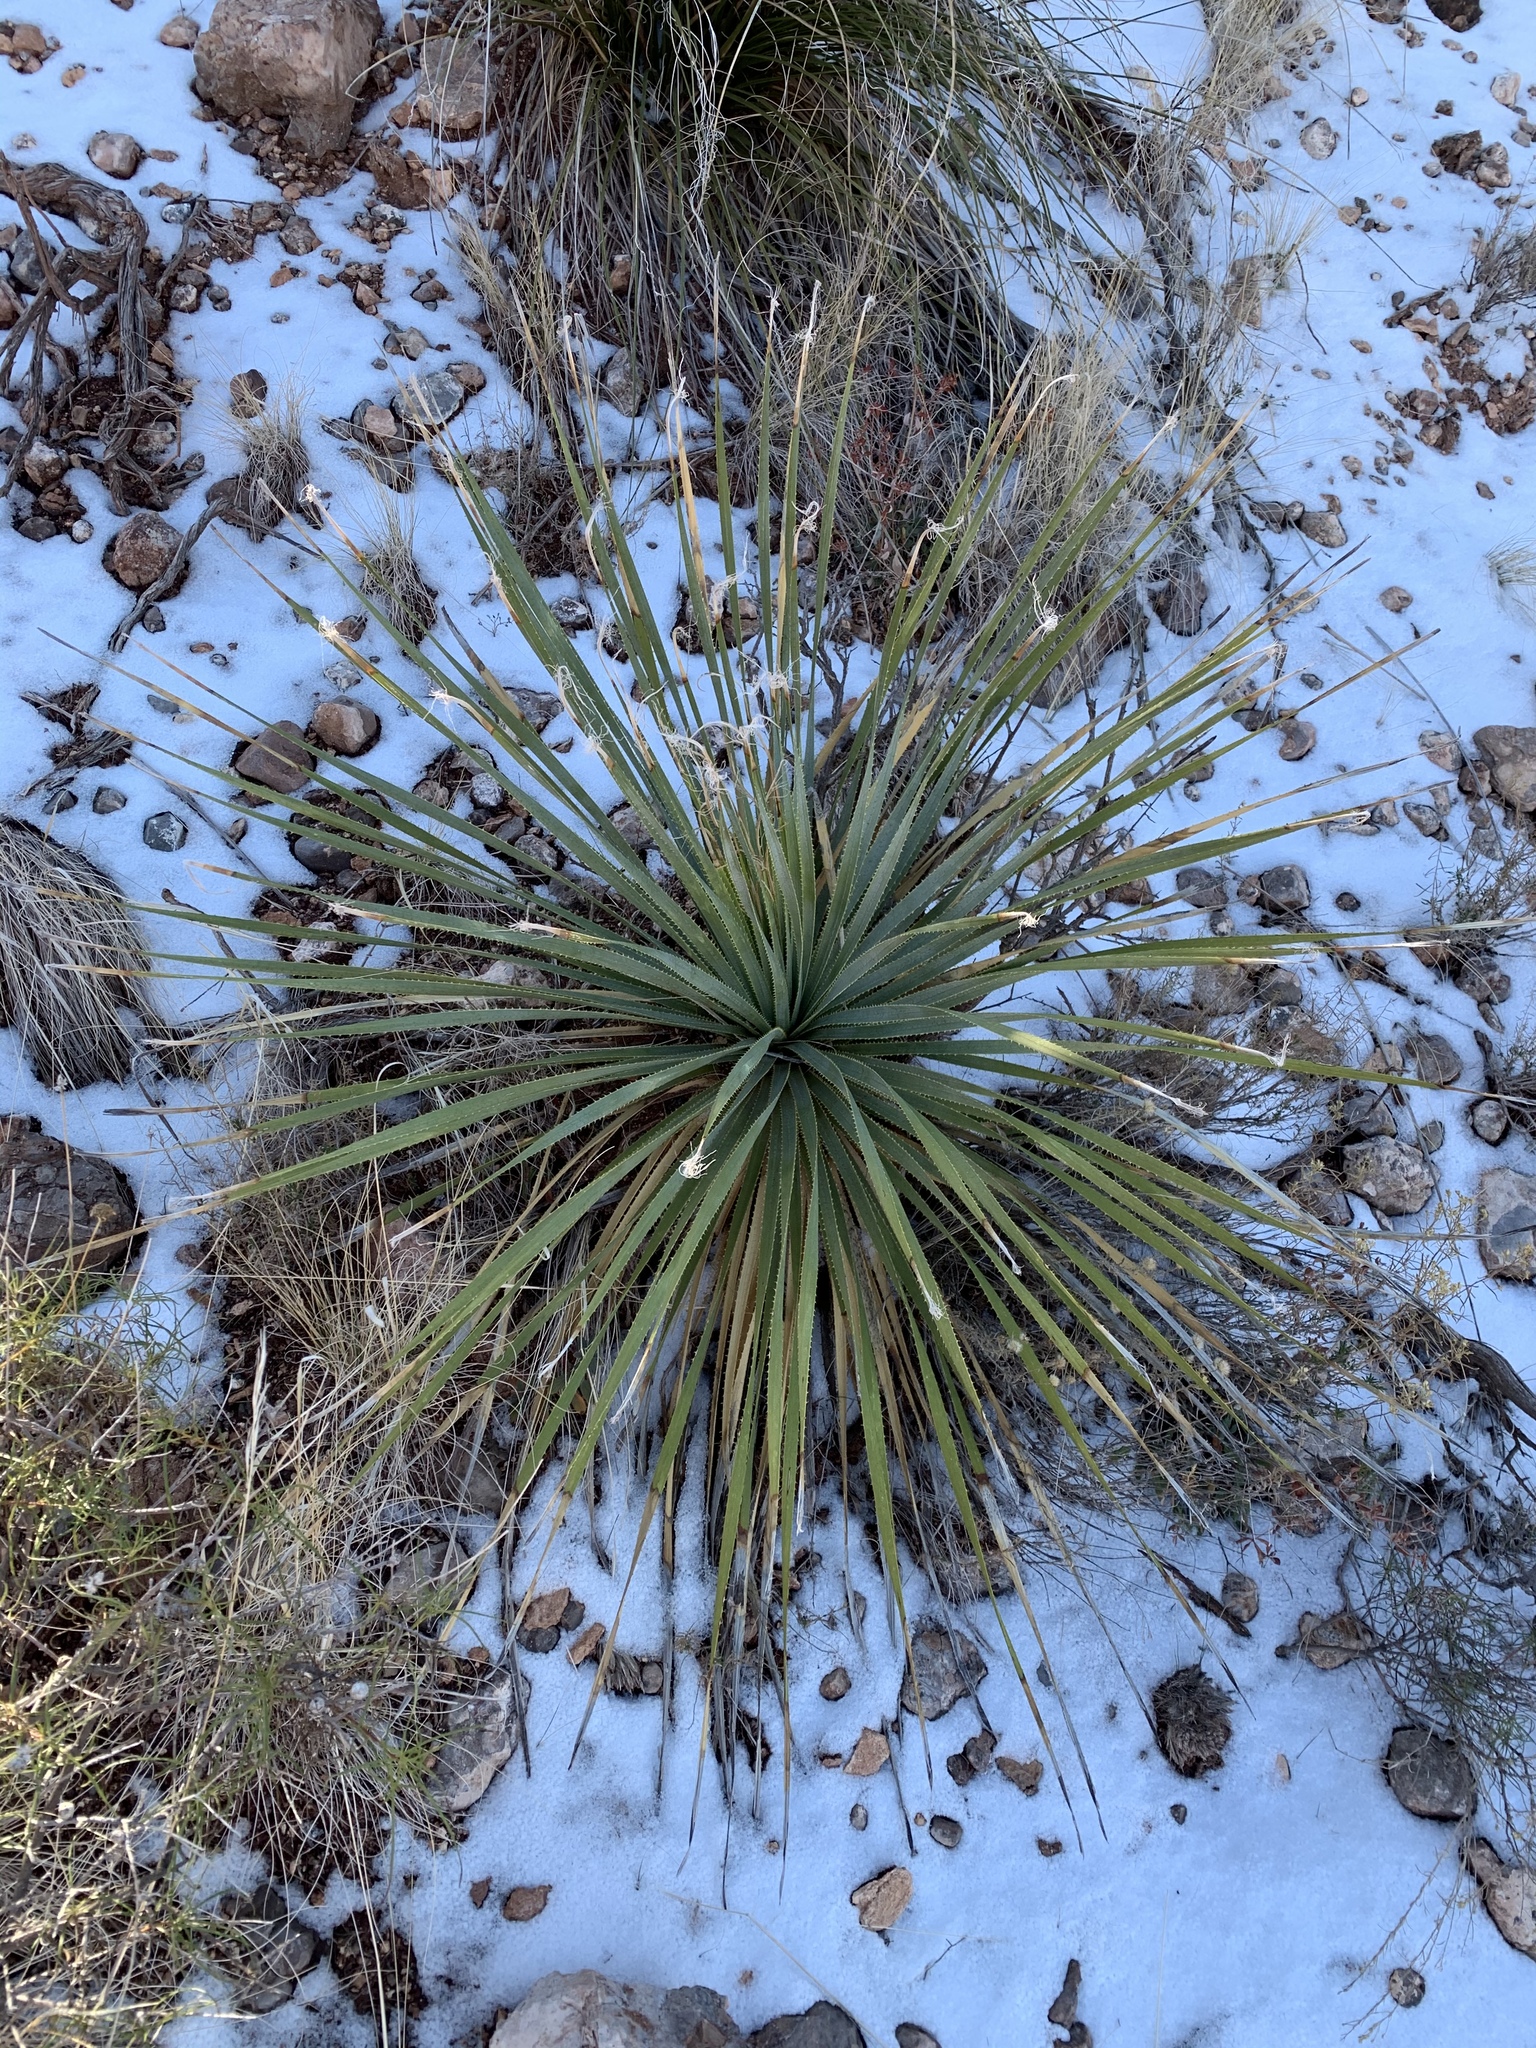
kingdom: Plantae
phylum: Tracheophyta
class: Liliopsida
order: Asparagales
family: Asparagaceae
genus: Dasylirion
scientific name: Dasylirion wheeleri
